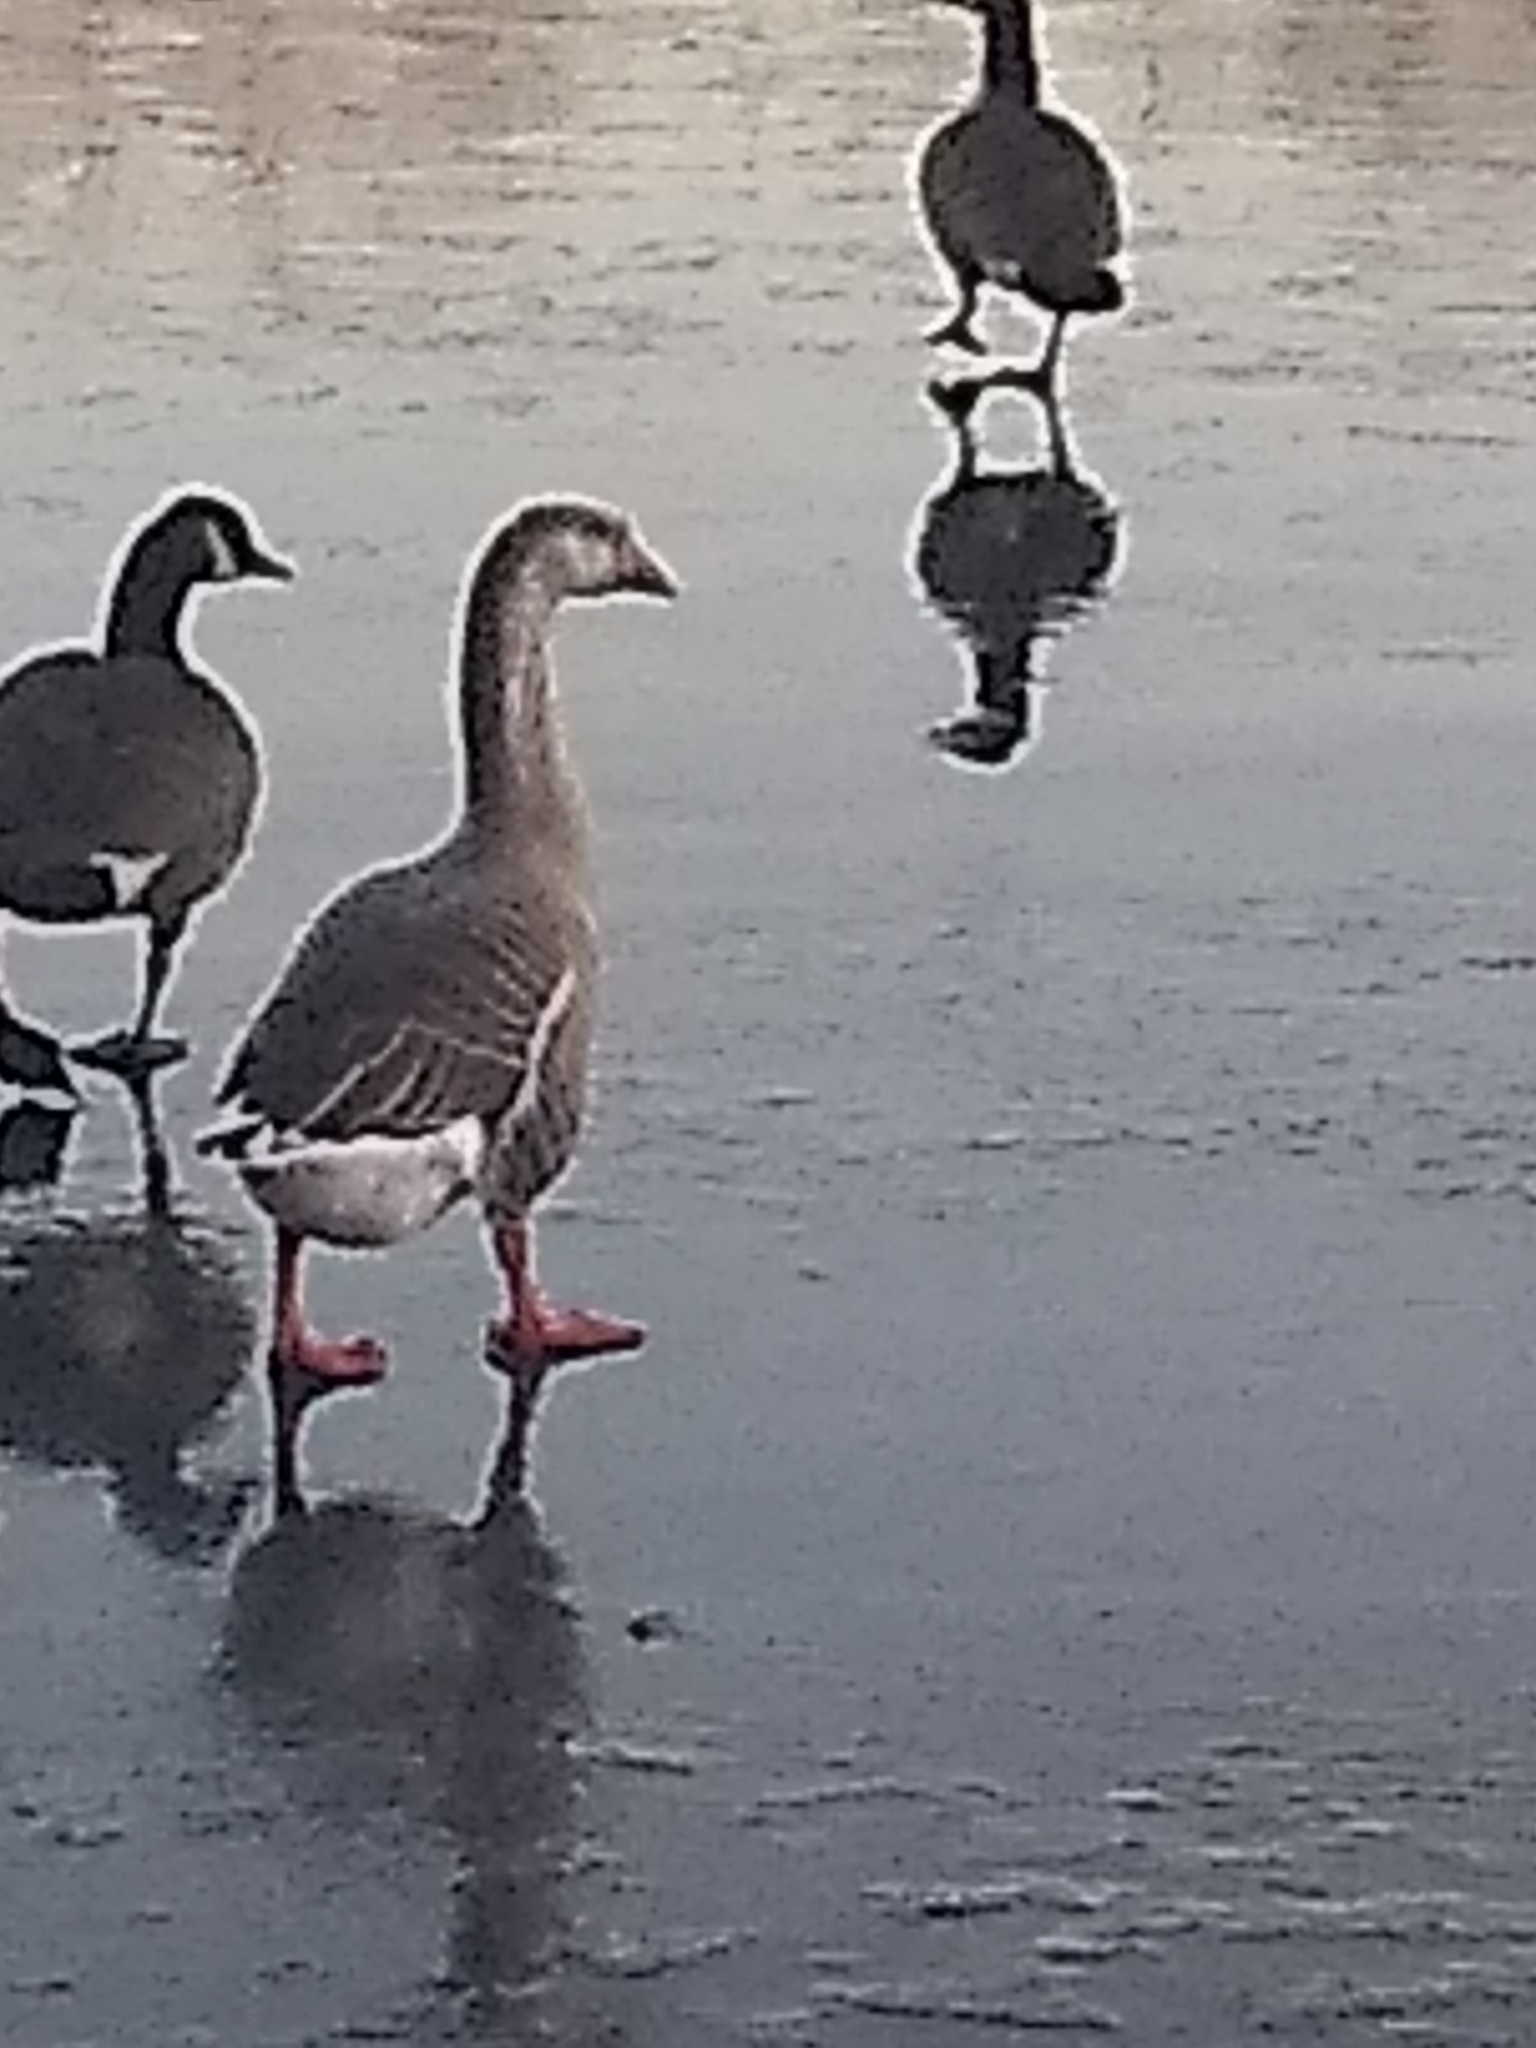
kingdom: Animalia
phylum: Chordata
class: Aves
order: Anseriformes
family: Anatidae
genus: Anser
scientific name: Anser
